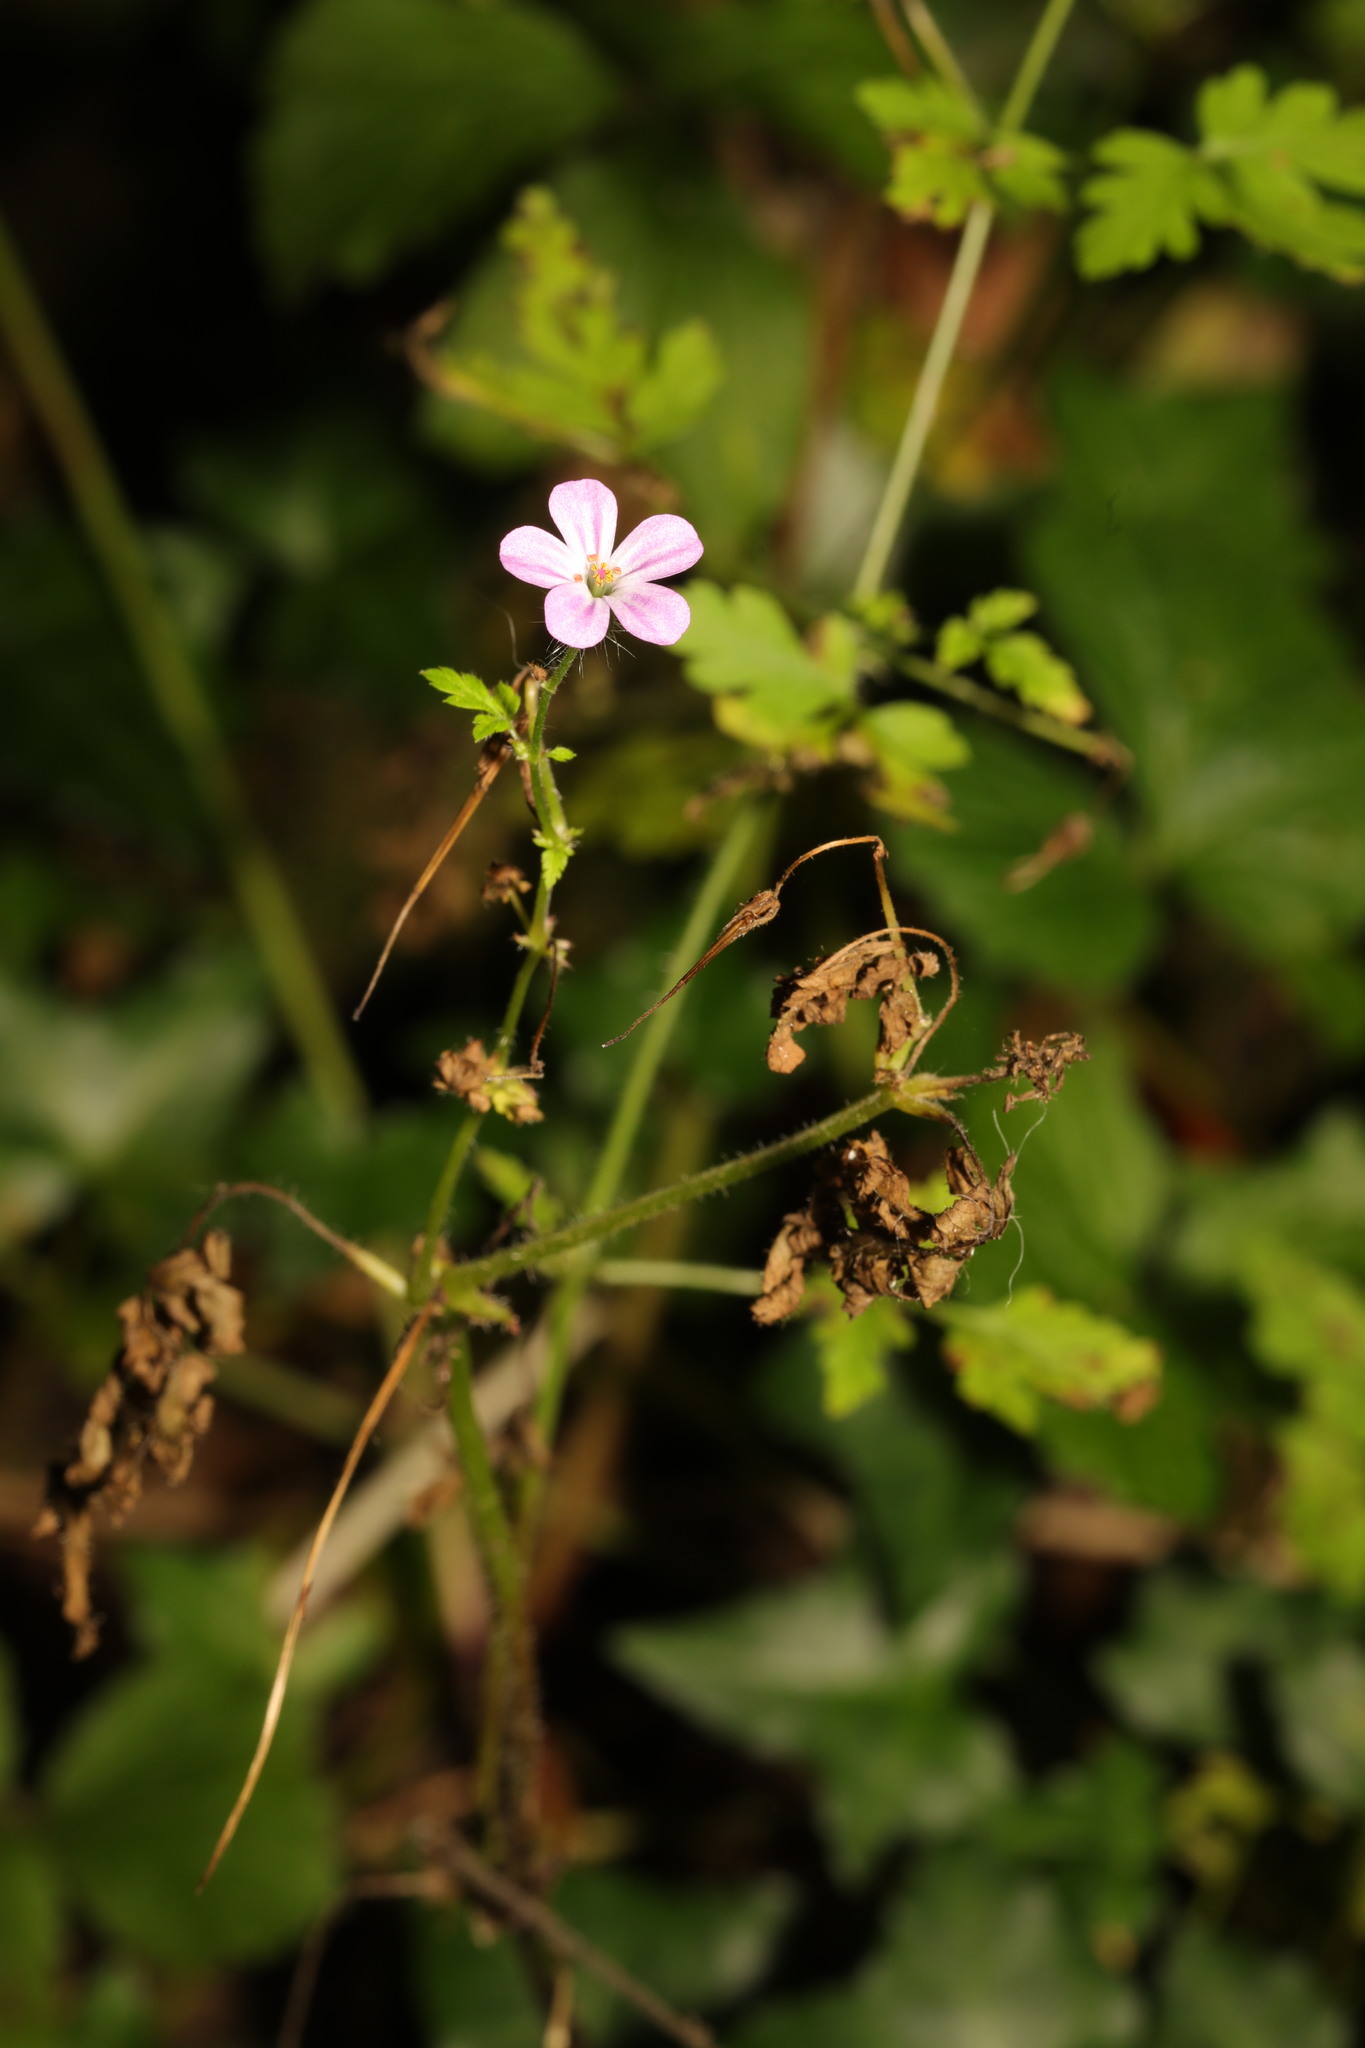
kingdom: Plantae
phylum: Tracheophyta
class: Magnoliopsida
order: Geraniales
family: Geraniaceae
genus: Geranium
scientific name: Geranium robertianum
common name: Herb-robert
